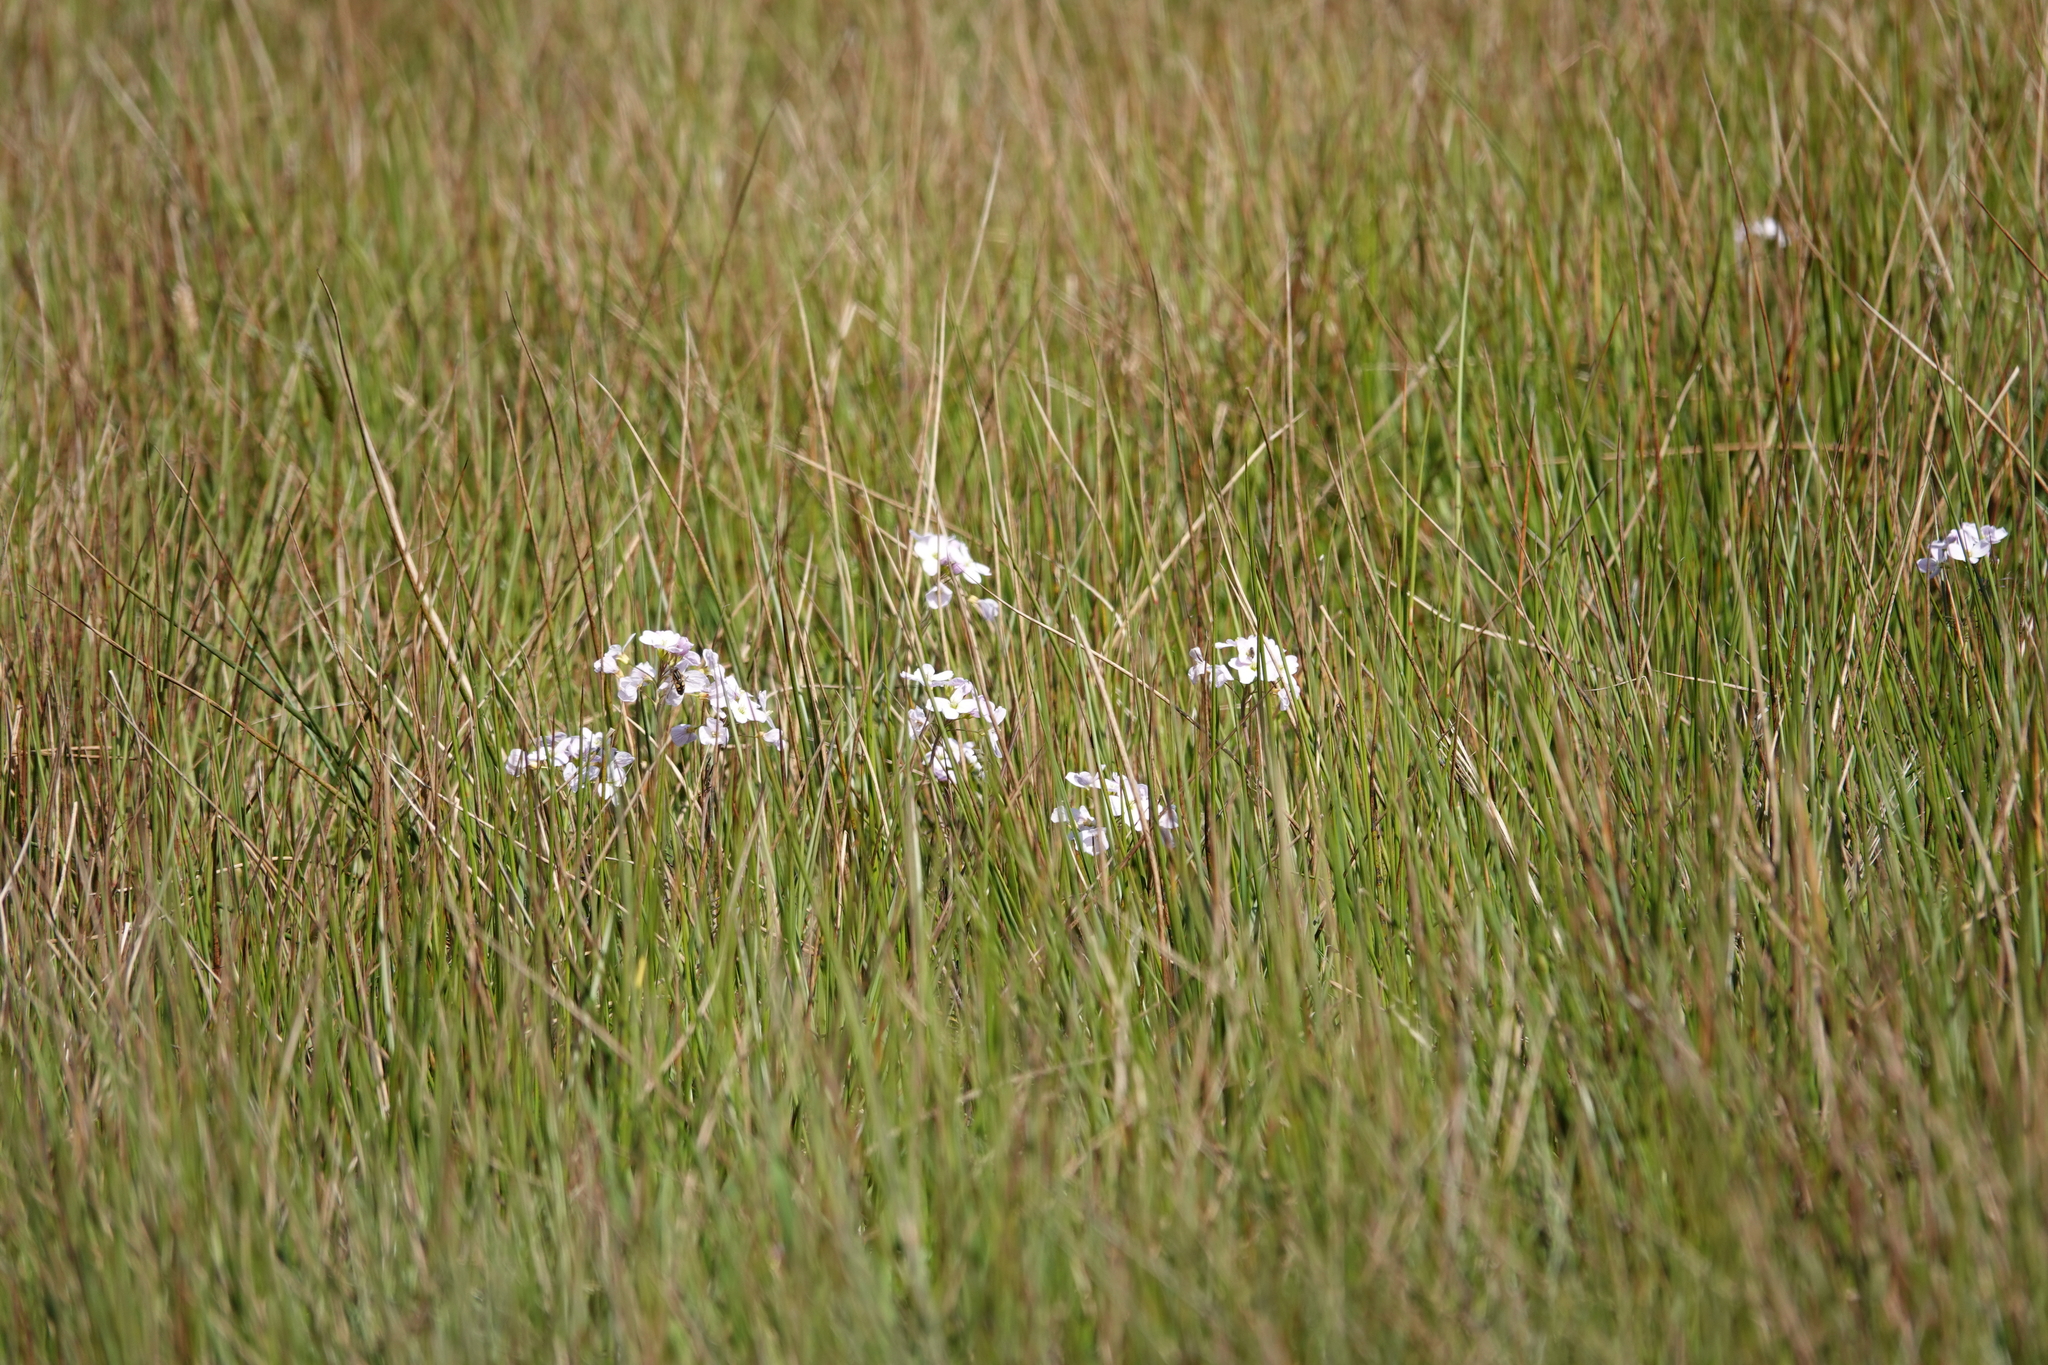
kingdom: Animalia
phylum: Arthropoda
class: Insecta
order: Diptera
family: Syrphidae
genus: Helophilus
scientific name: Helophilus
